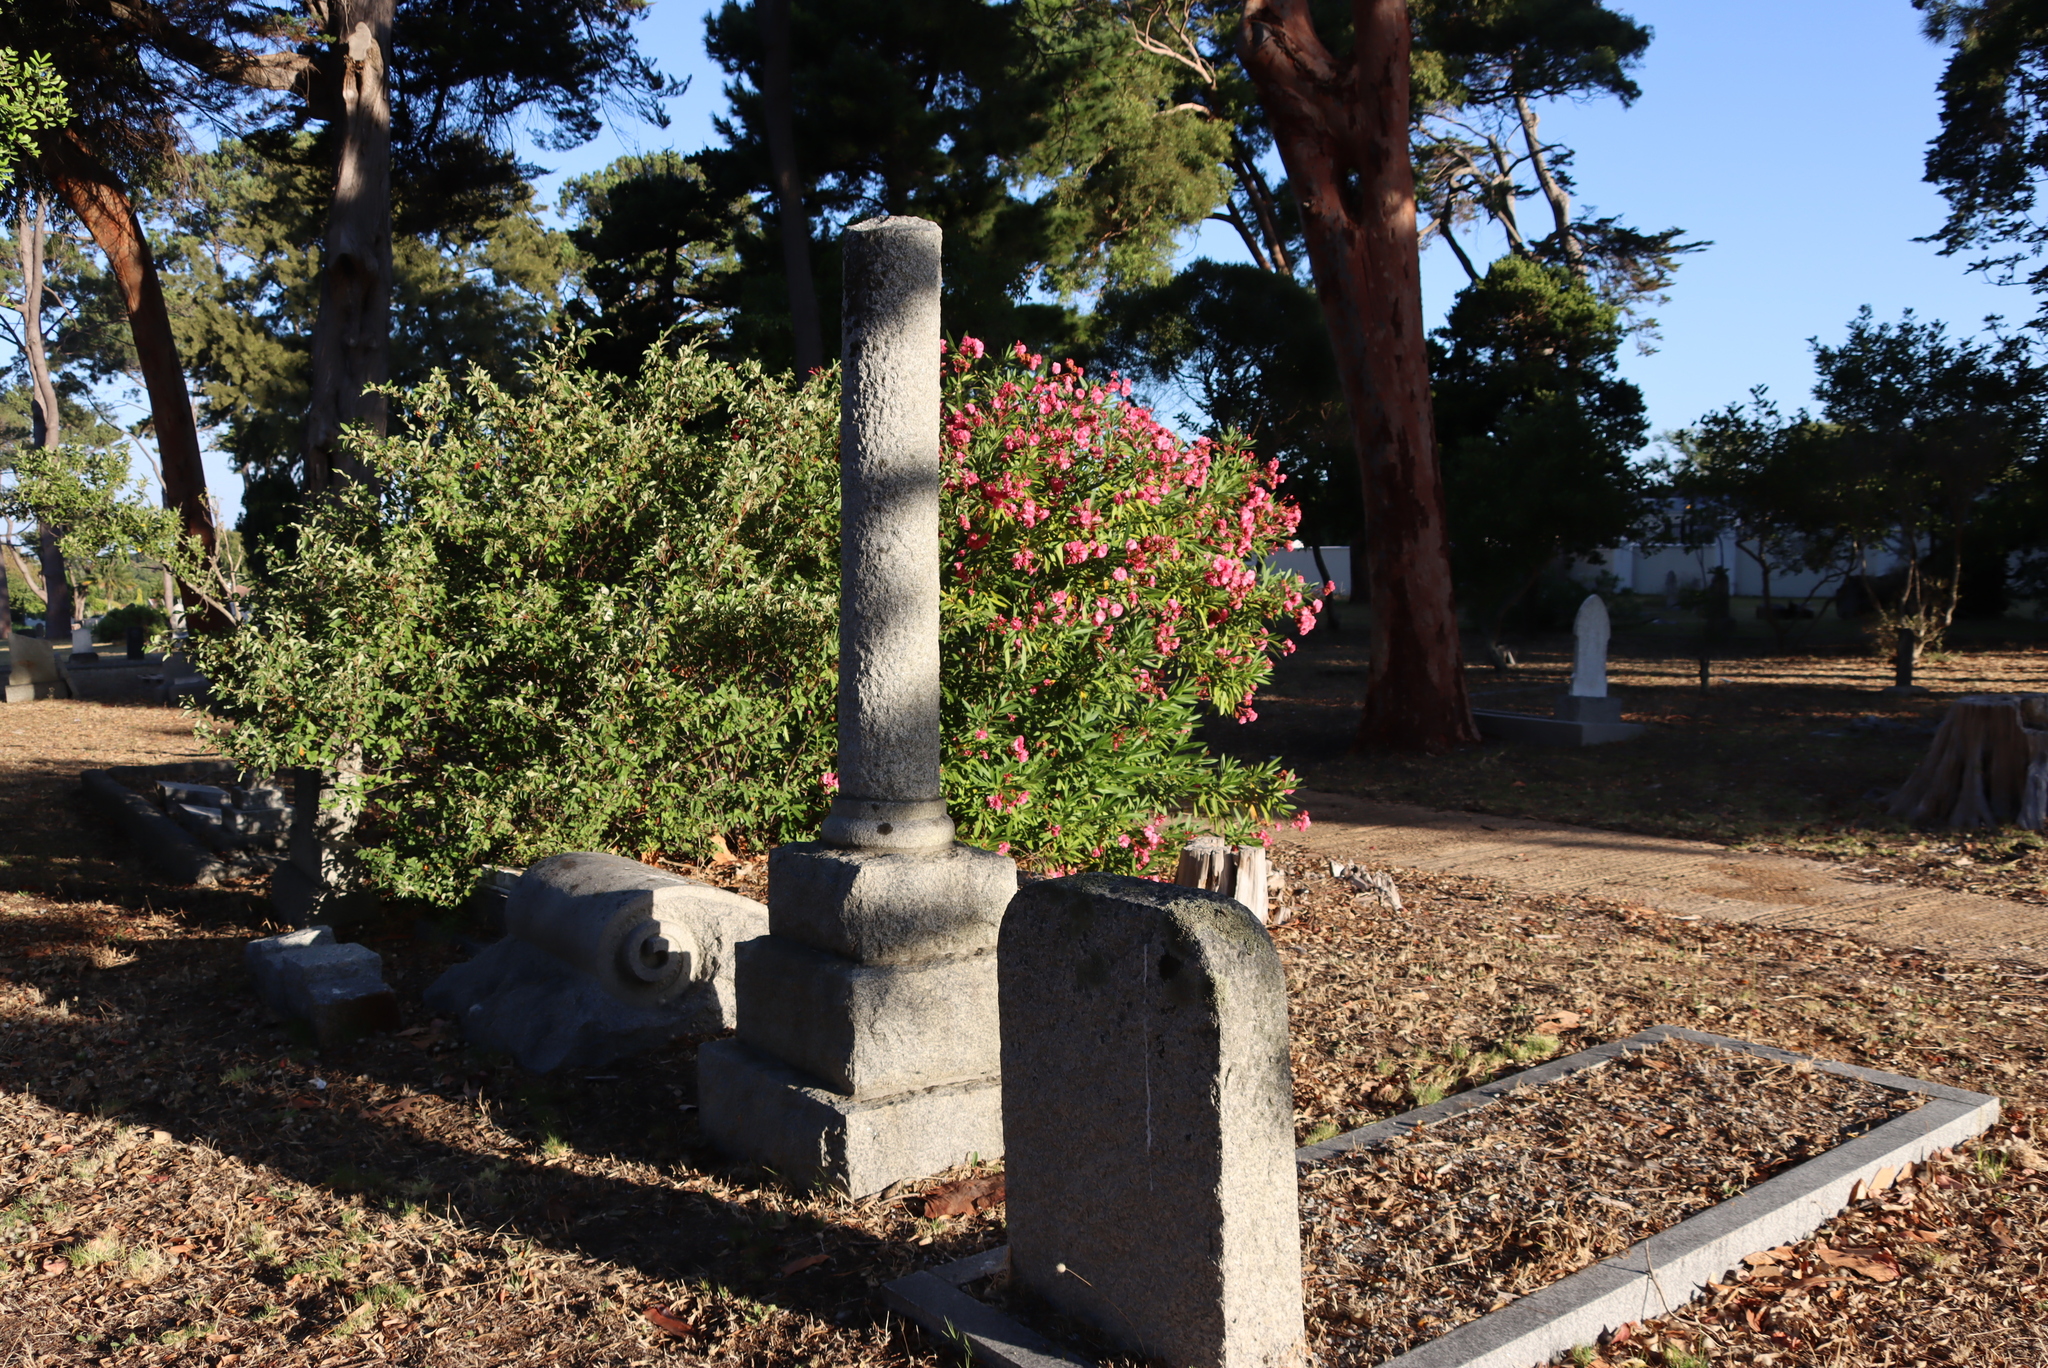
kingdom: Plantae
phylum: Tracheophyta
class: Magnoliopsida
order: Gentianales
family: Apocynaceae
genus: Nerium
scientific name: Nerium oleander
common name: Oleander
